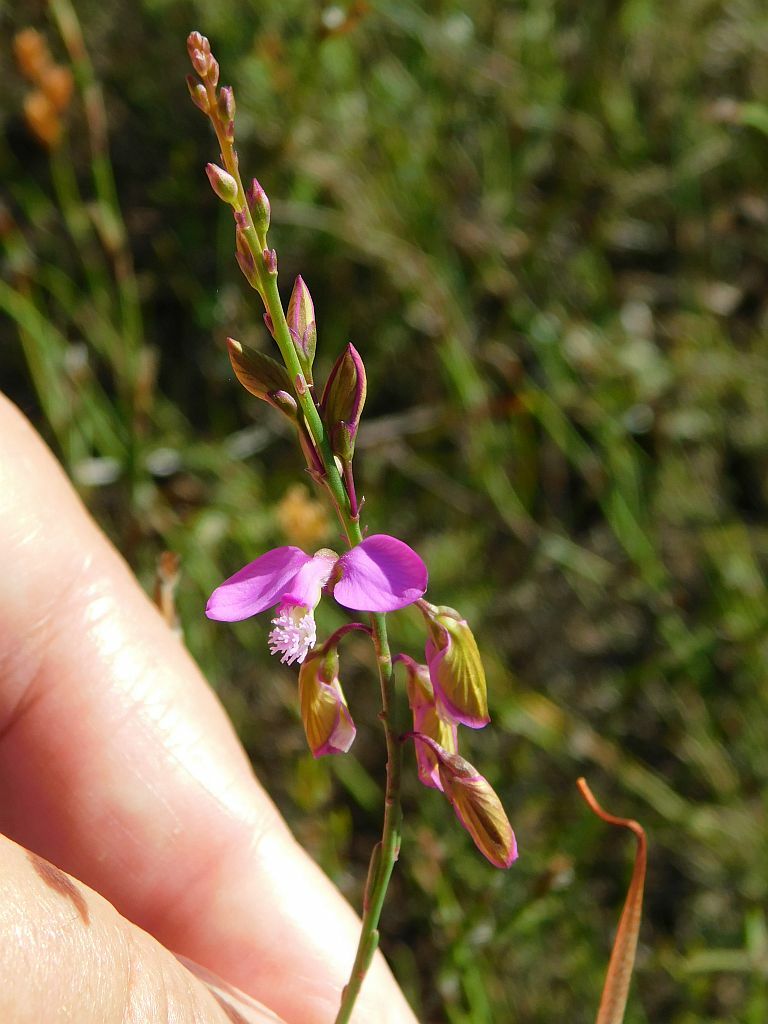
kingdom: Plantae
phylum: Tracheophyta
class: Magnoliopsida
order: Fabales
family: Polygalaceae
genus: Polygala
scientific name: Polygala garcini
